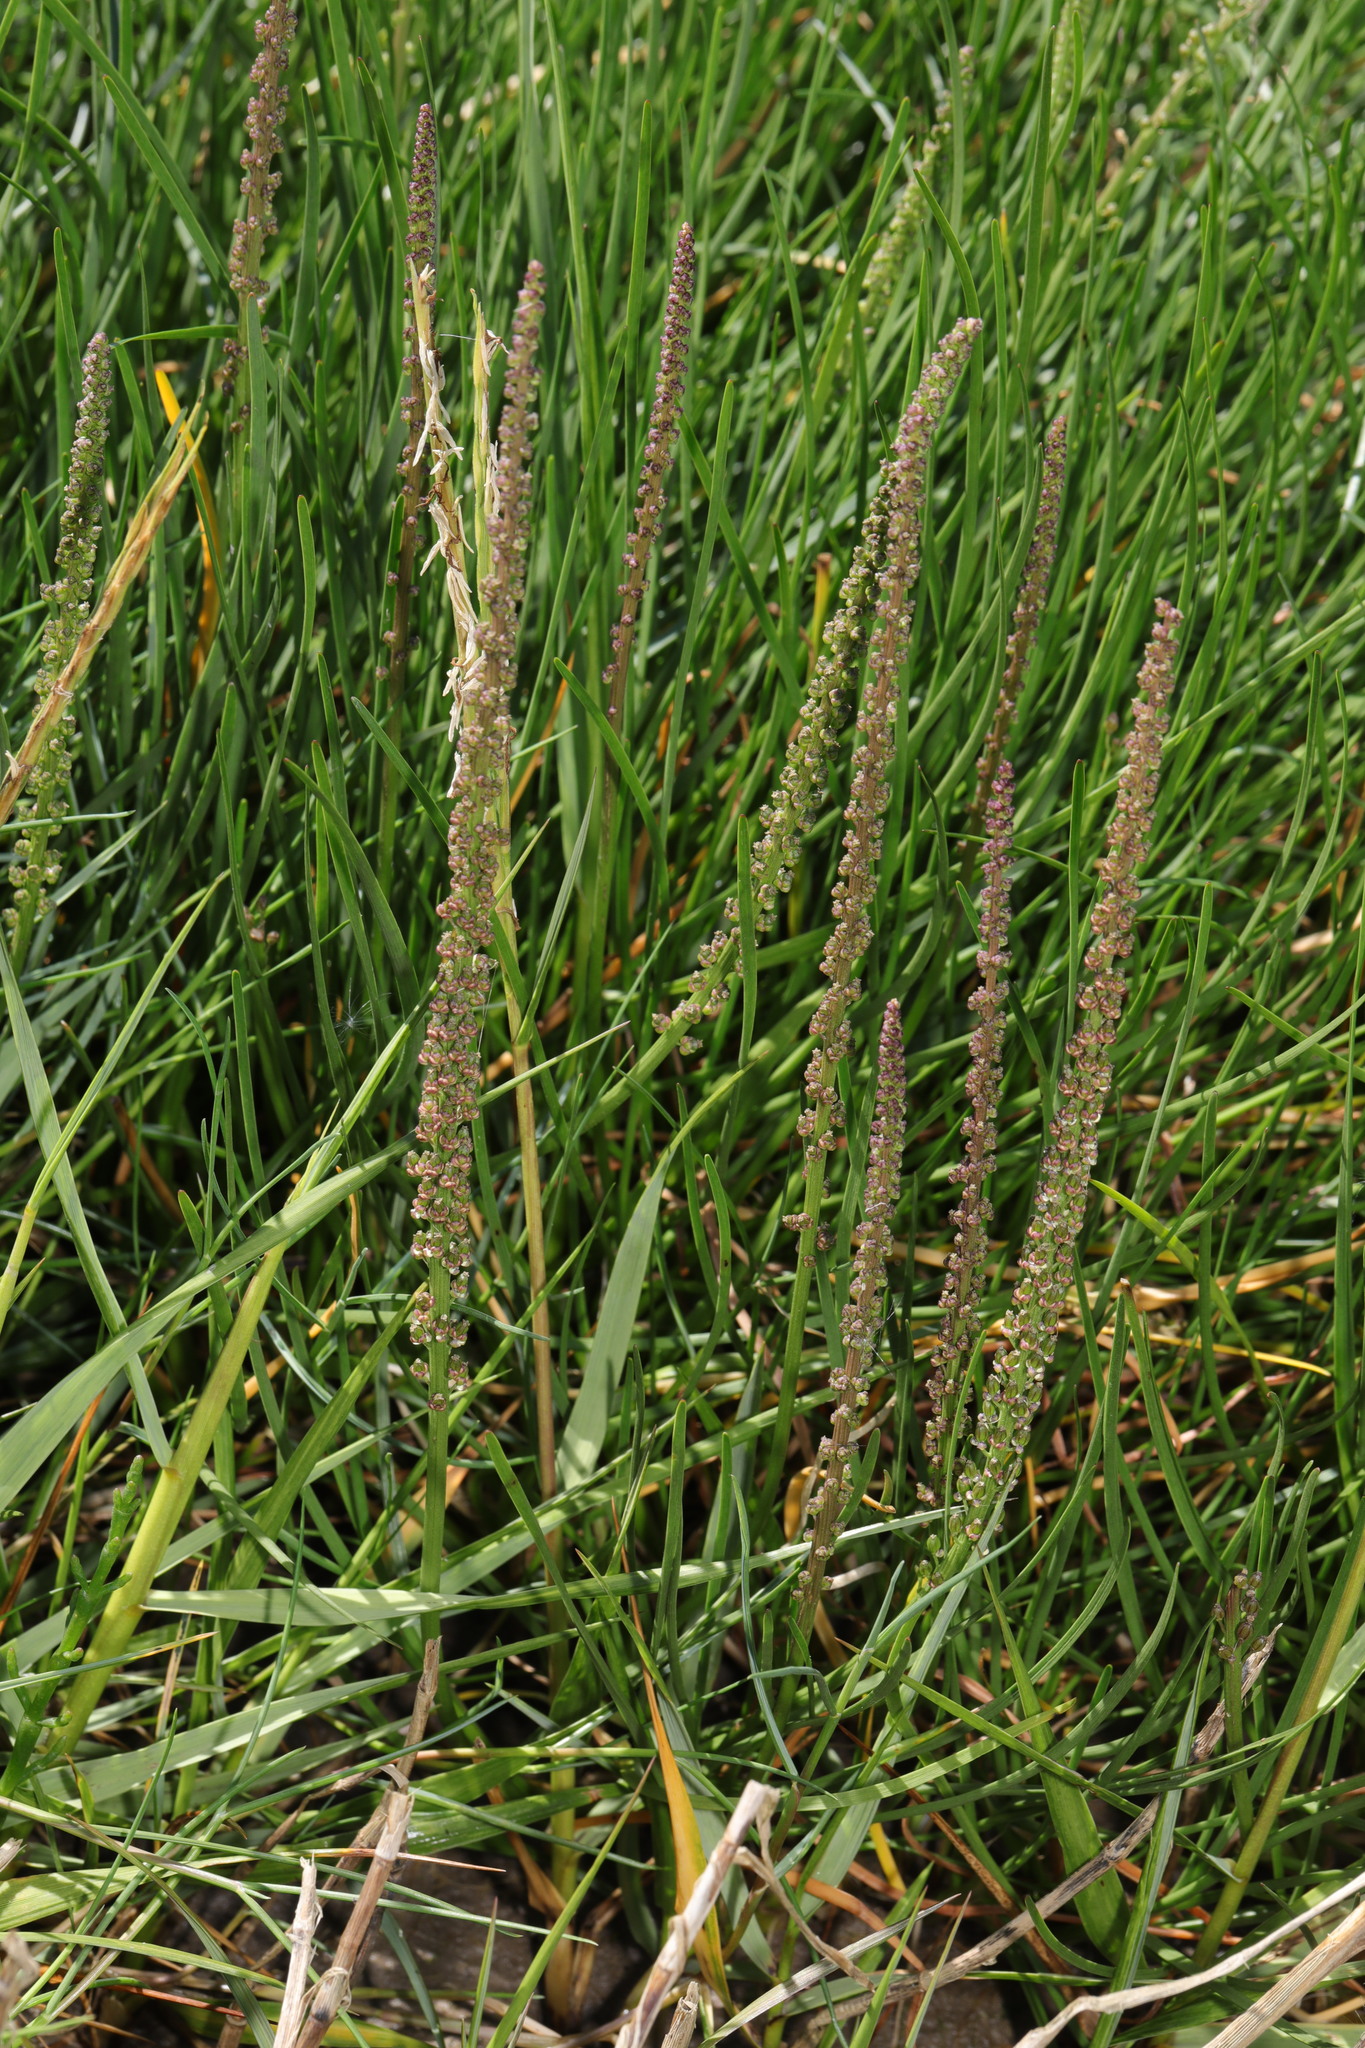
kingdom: Plantae
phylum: Tracheophyta
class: Liliopsida
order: Alismatales
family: Juncaginaceae
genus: Triglochin
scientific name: Triglochin maritima
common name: Sea arrowgrass
